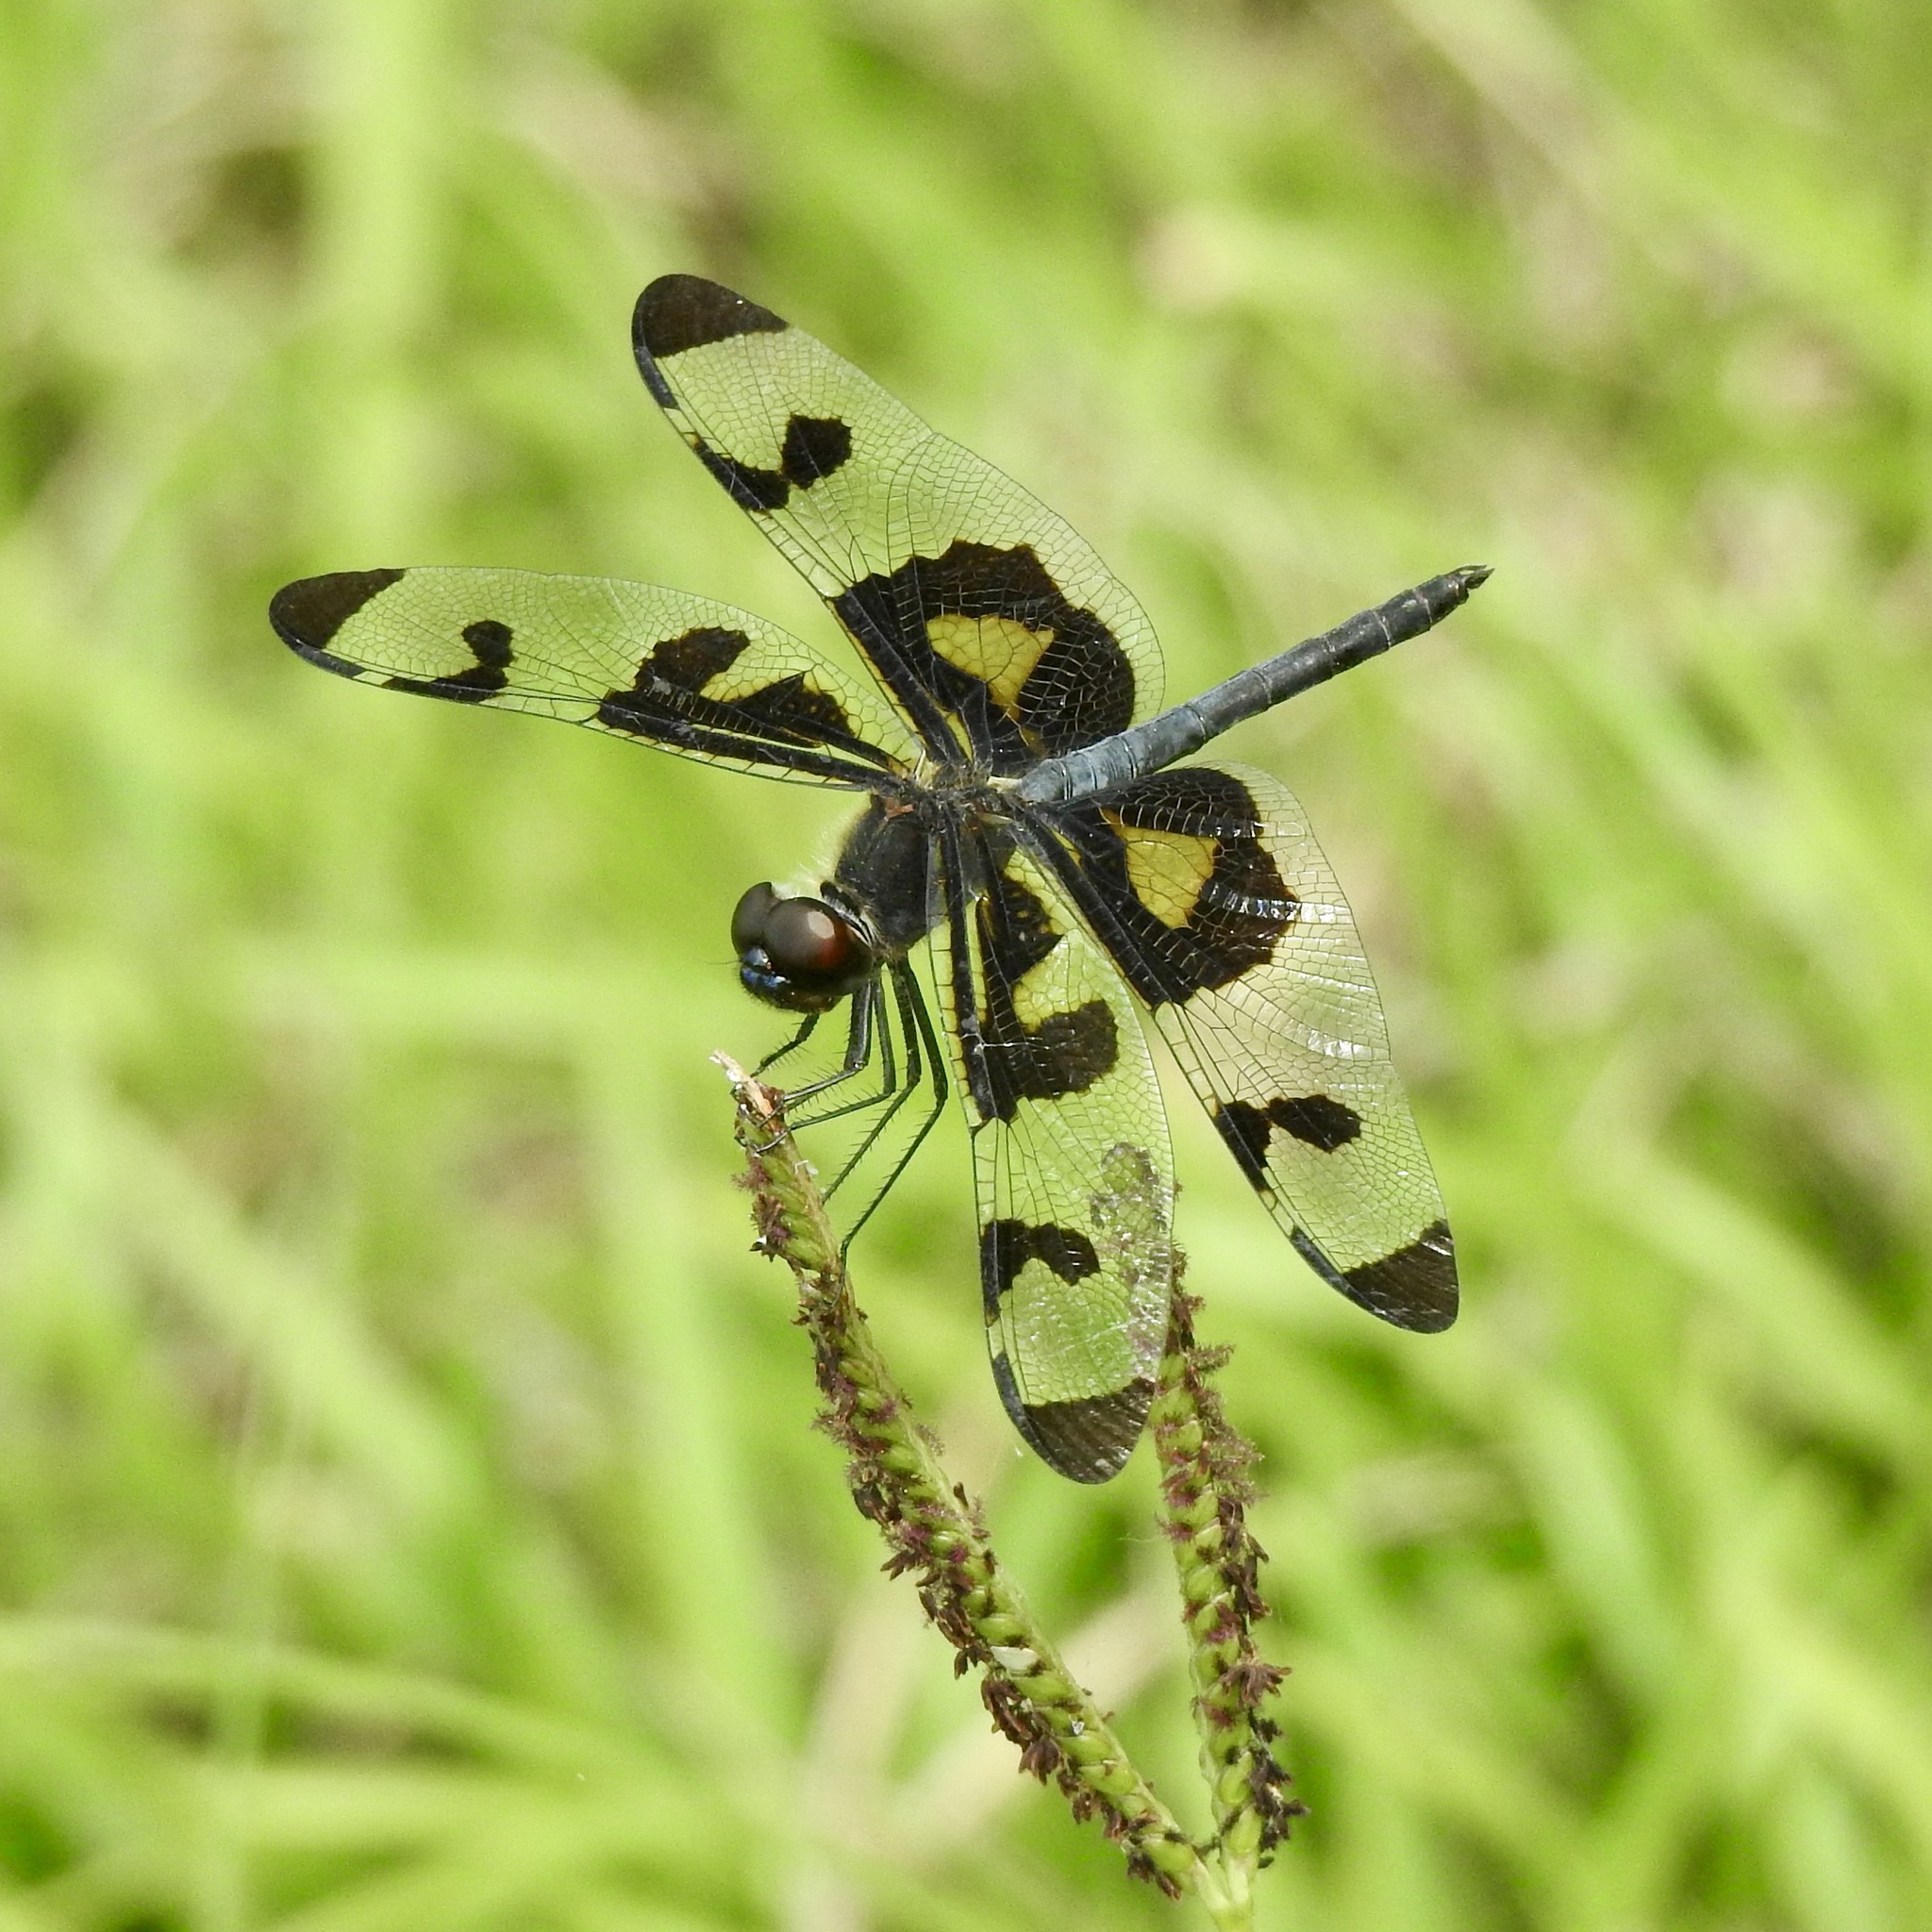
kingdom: Animalia
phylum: Arthropoda
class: Insecta
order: Odonata
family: Libellulidae
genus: Celithemis
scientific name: Celithemis fasciata
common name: Banded pennant
